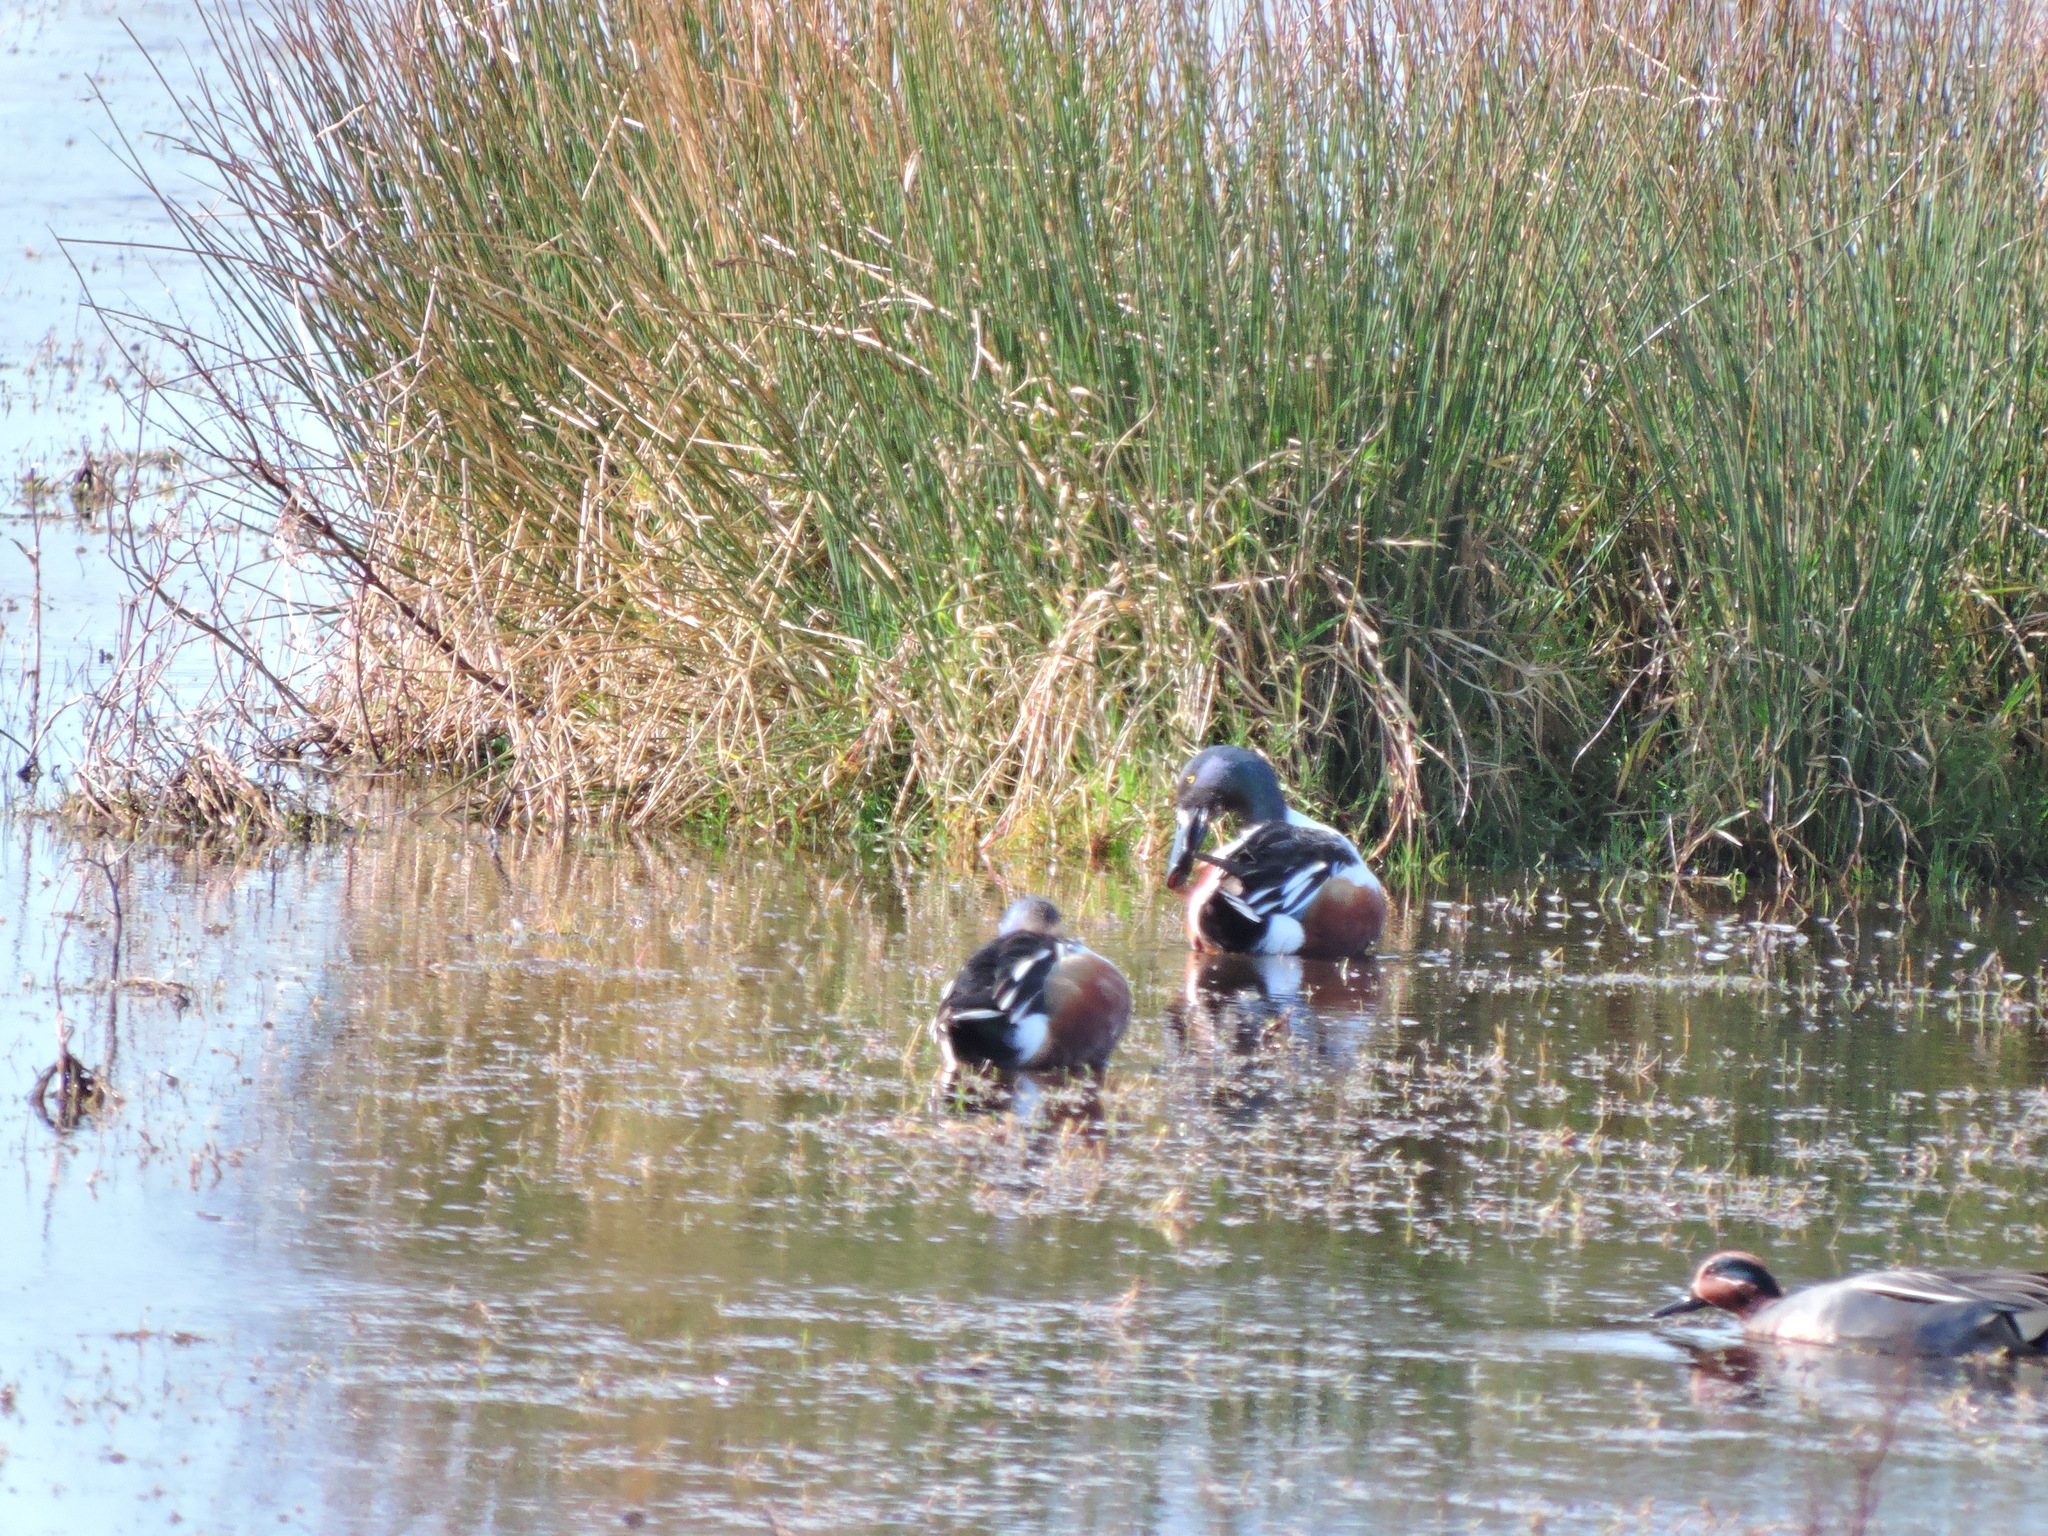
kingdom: Animalia
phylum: Chordata
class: Aves
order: Anseriformes
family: Anatidae
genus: Spatula
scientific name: Spatula clypeata
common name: Northern shoveler
